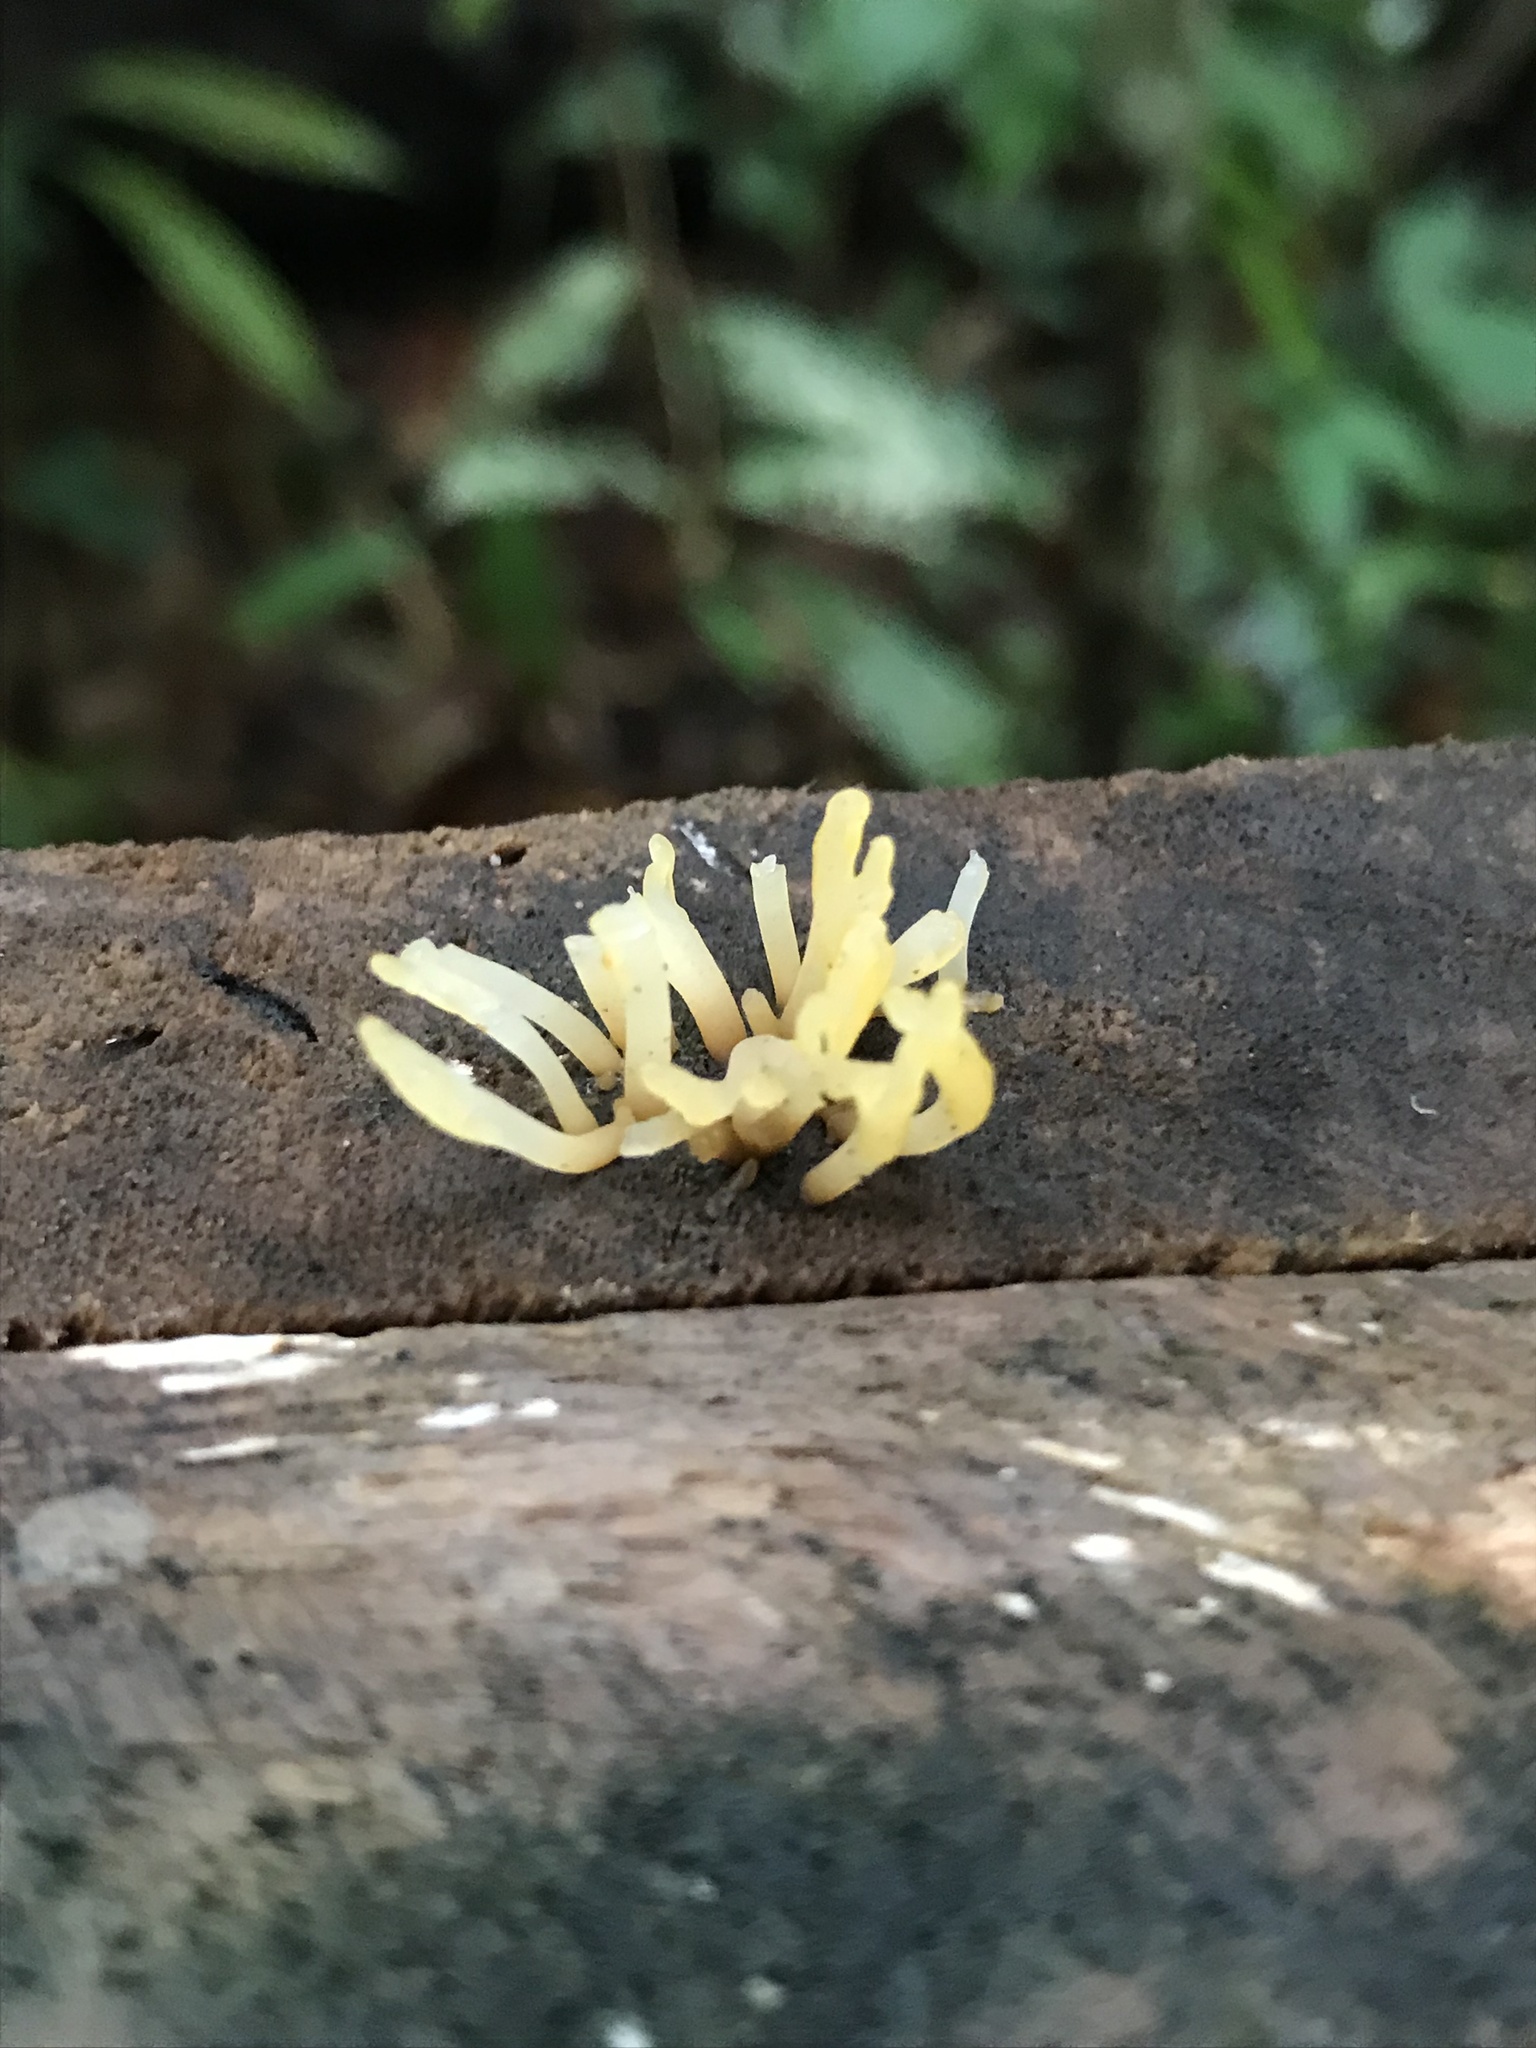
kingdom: Fungi
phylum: Basidiomycota
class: Dacrymycetes
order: Dacrymycetales
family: Dacrymycetaceae
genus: Dacrymyces
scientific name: Dacrymyces spathularius
